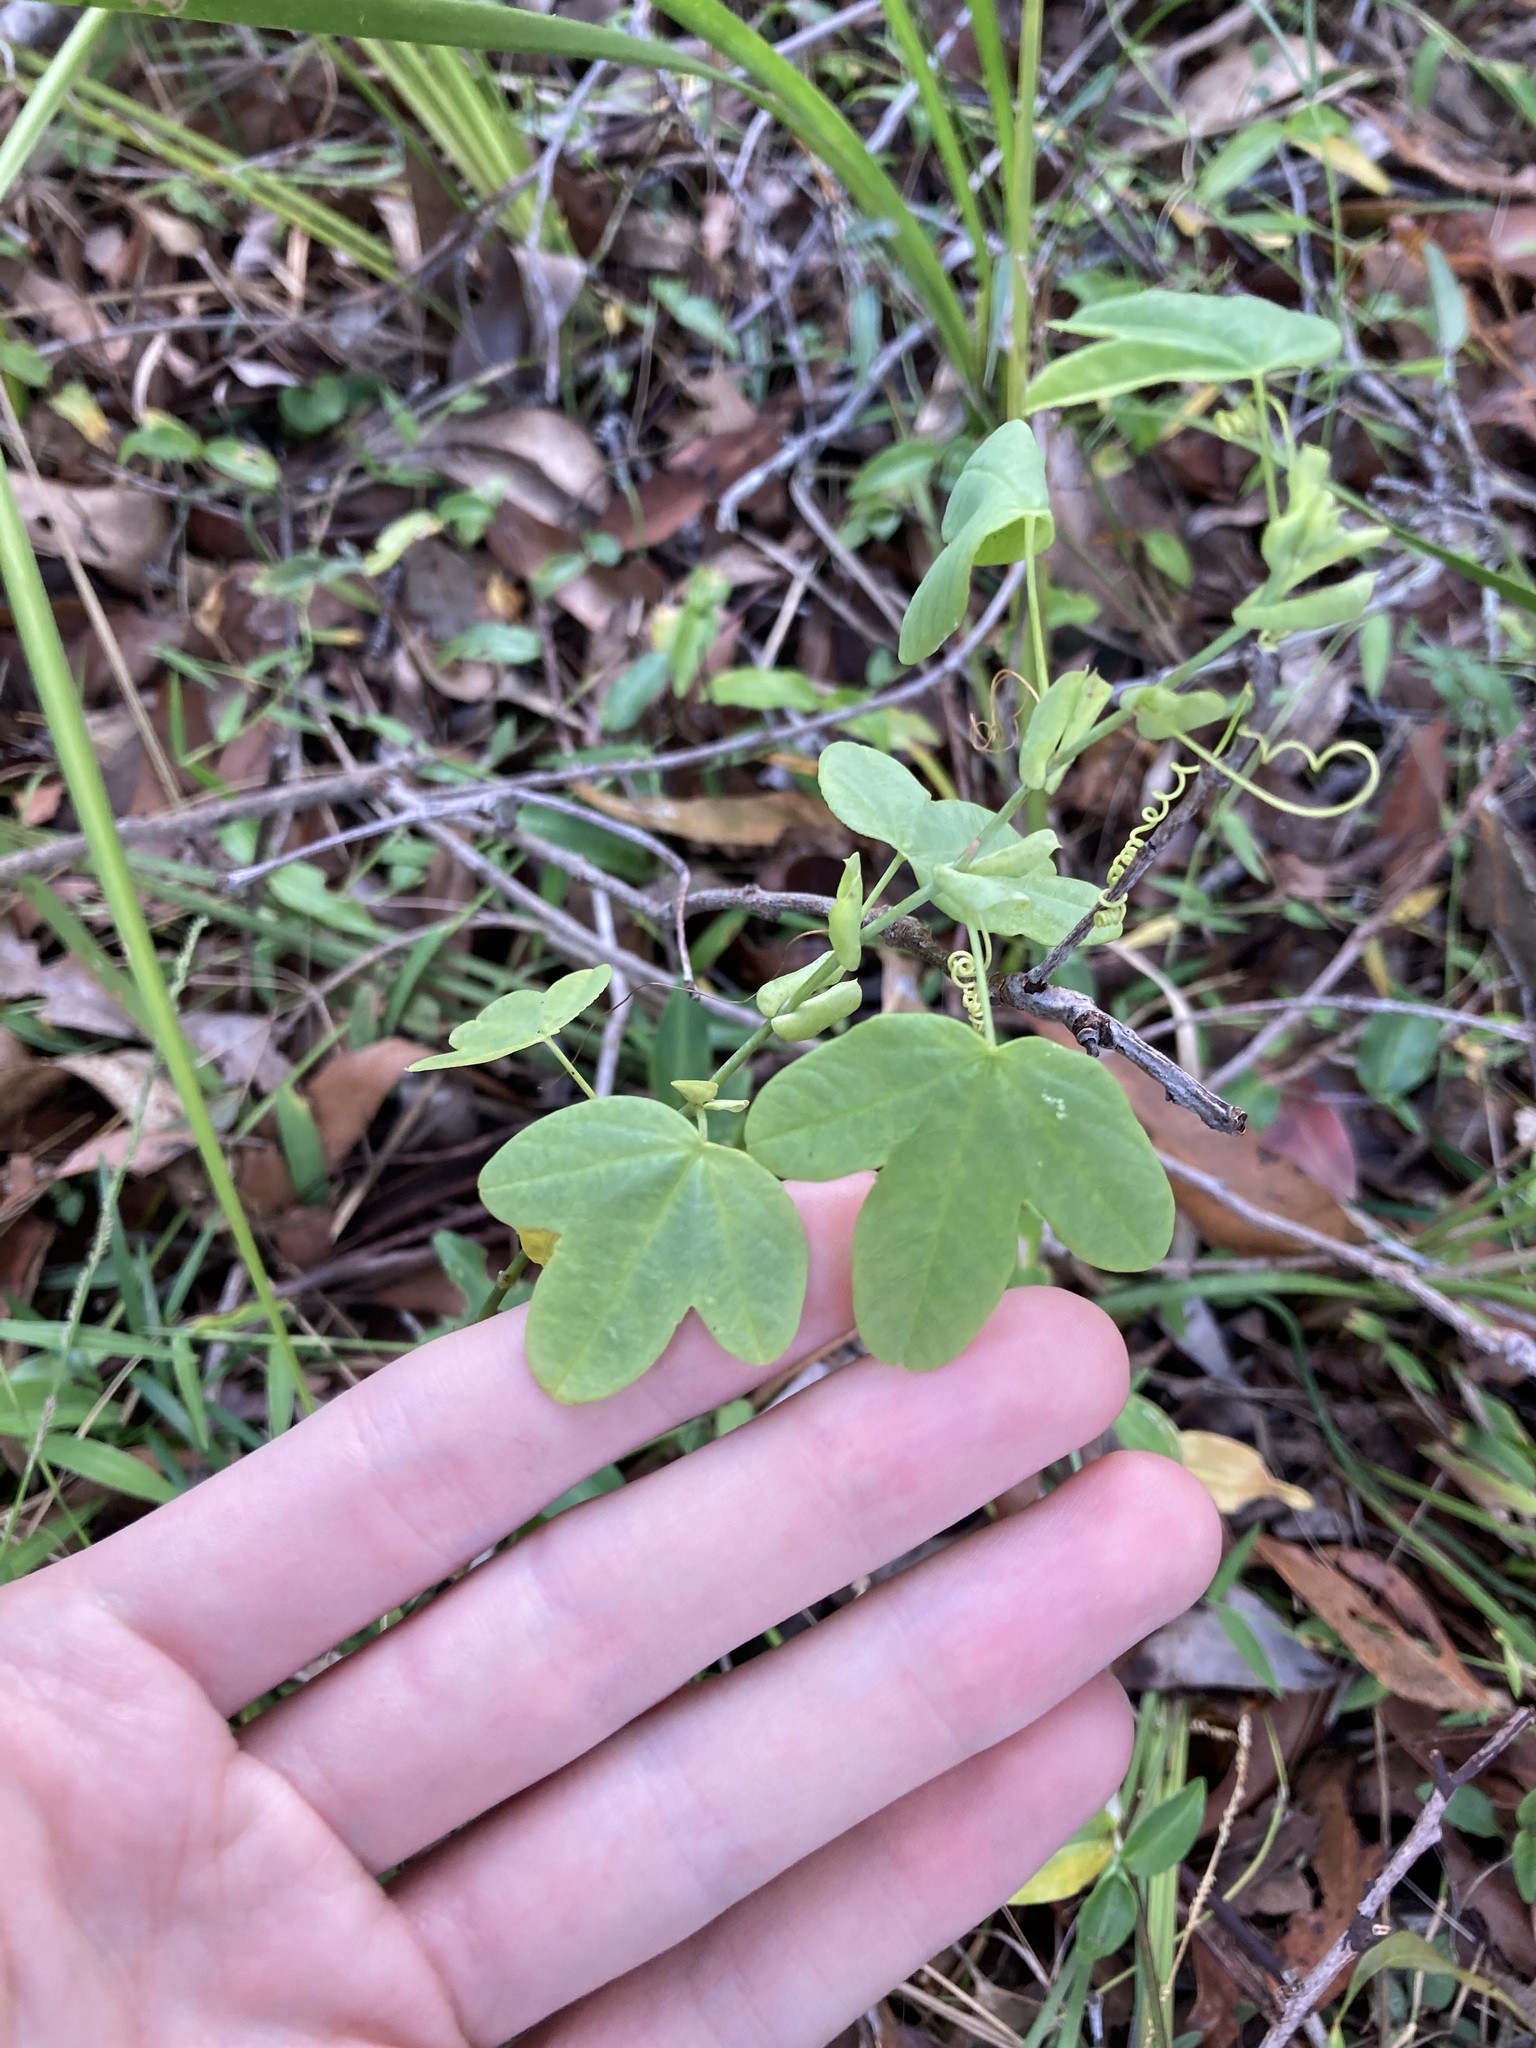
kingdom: Plantae
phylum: Tracheophyta
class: Magnoliopsida
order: Malpighiales
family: Passifloraceae
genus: Passiflora
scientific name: Passiflora subpeltata
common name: White passionflower
